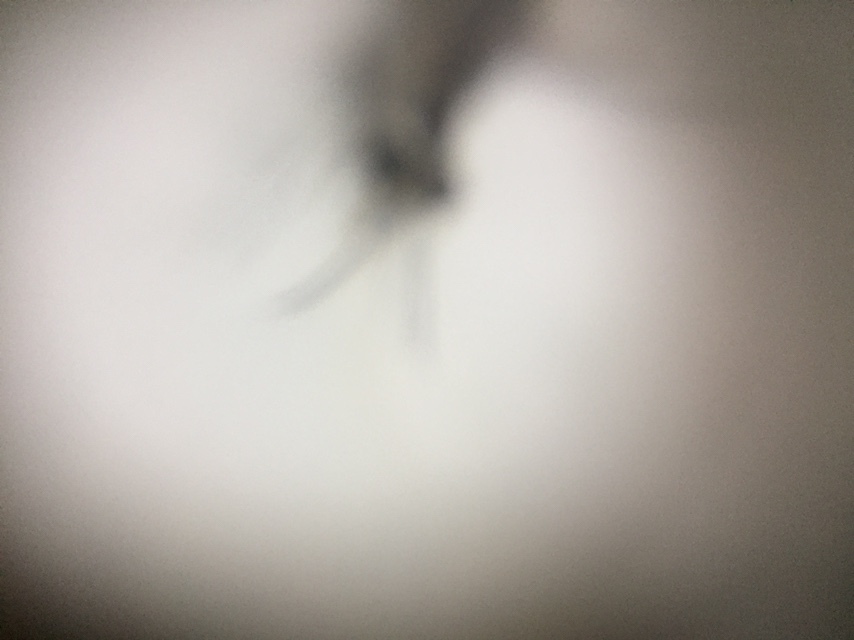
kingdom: Animalia
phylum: Arthropoda
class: Insecta
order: Neuroptera
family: Nemopteridae
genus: Croce
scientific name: Croce filipennis
